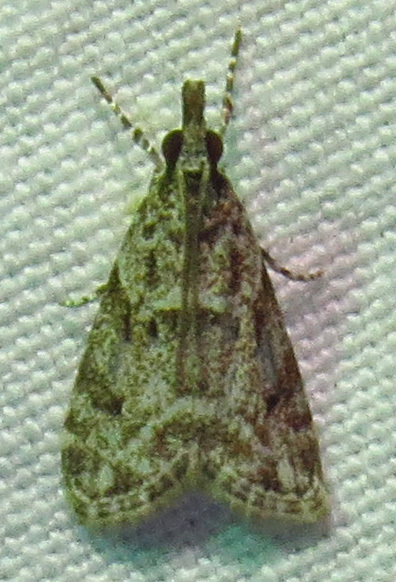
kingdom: Animalia
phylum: Arthropoda
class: Insecta
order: Lepidoptera
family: Crambidae
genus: Eudonia
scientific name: Eudonia heterosalis
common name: Mcdunnough's eudonia
